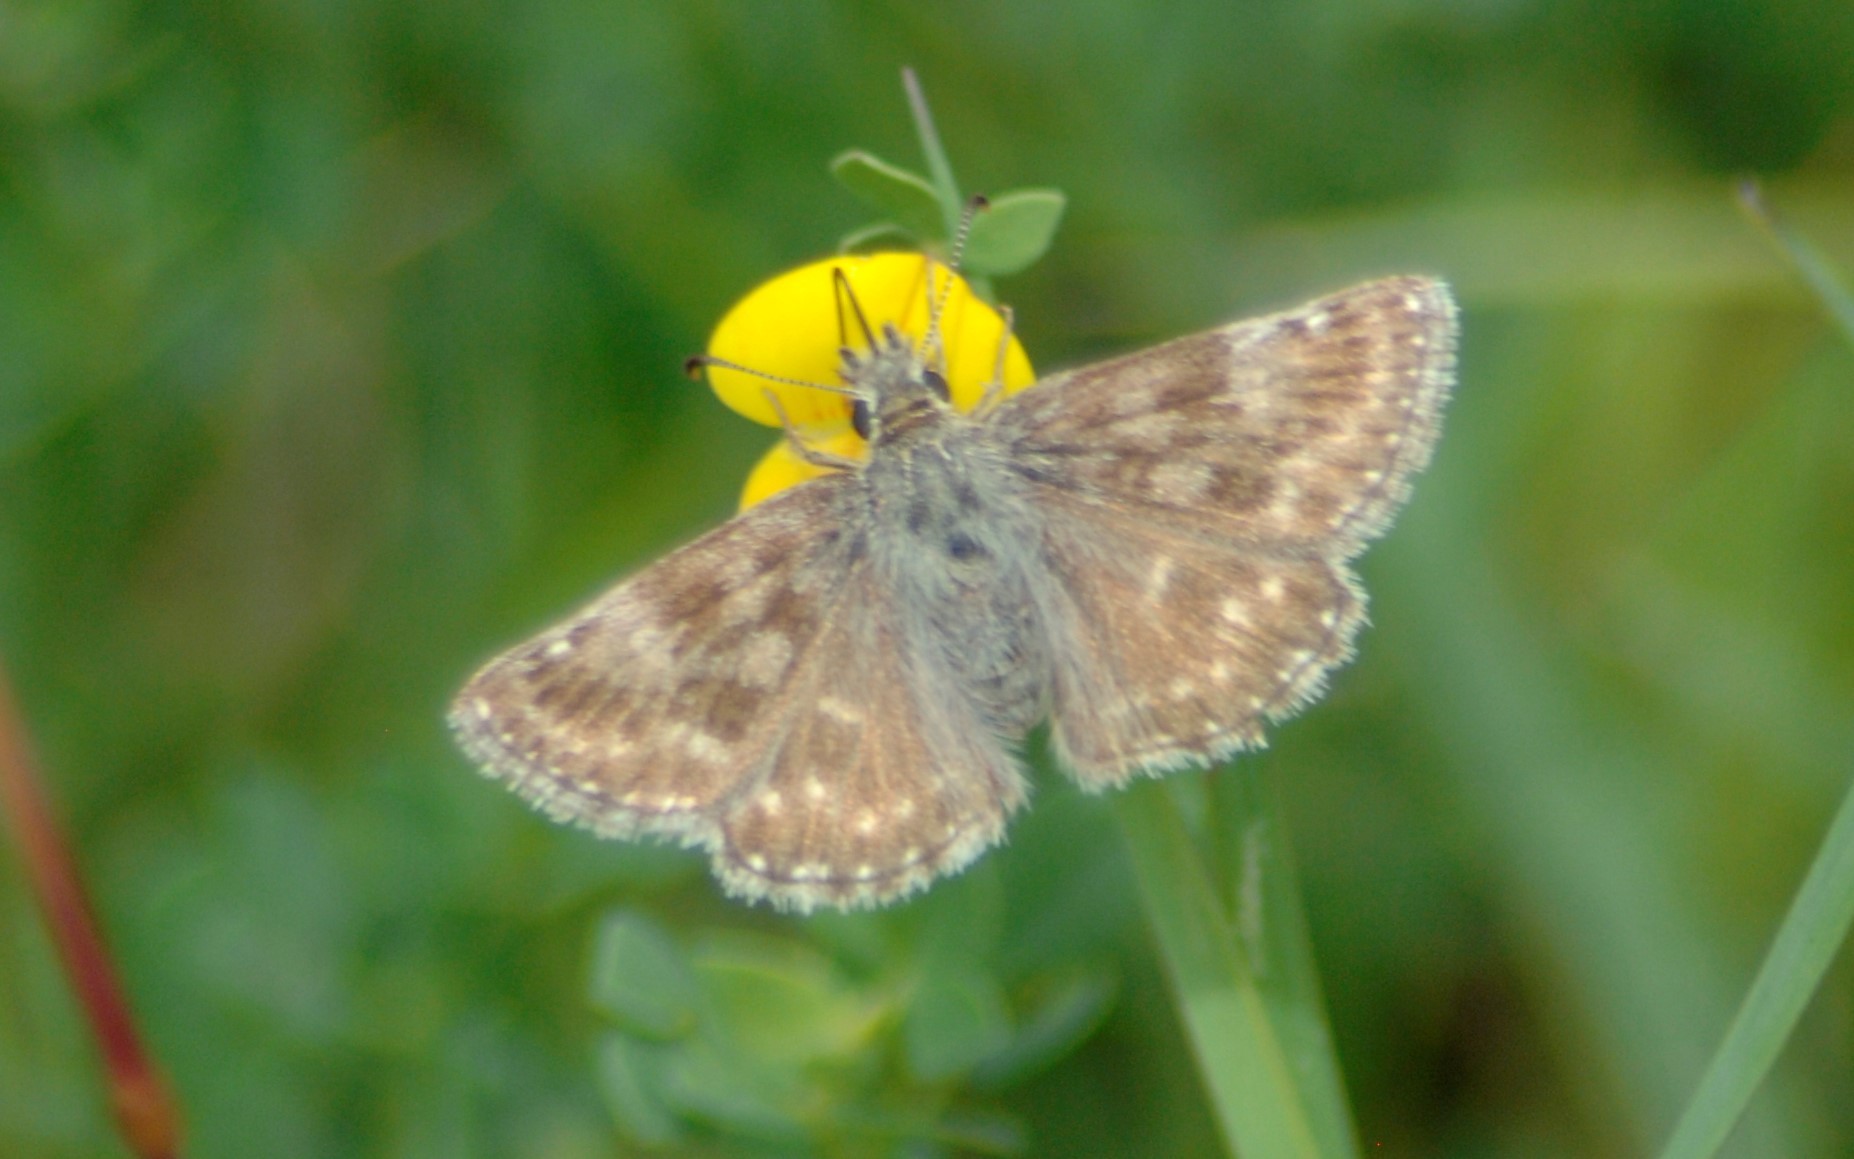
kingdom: Animalia
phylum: Arthropoda
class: Insecta
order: Lepidoptera
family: Hesperiidae
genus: Erynnis
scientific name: Erynnis tages
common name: Dingy skipper
